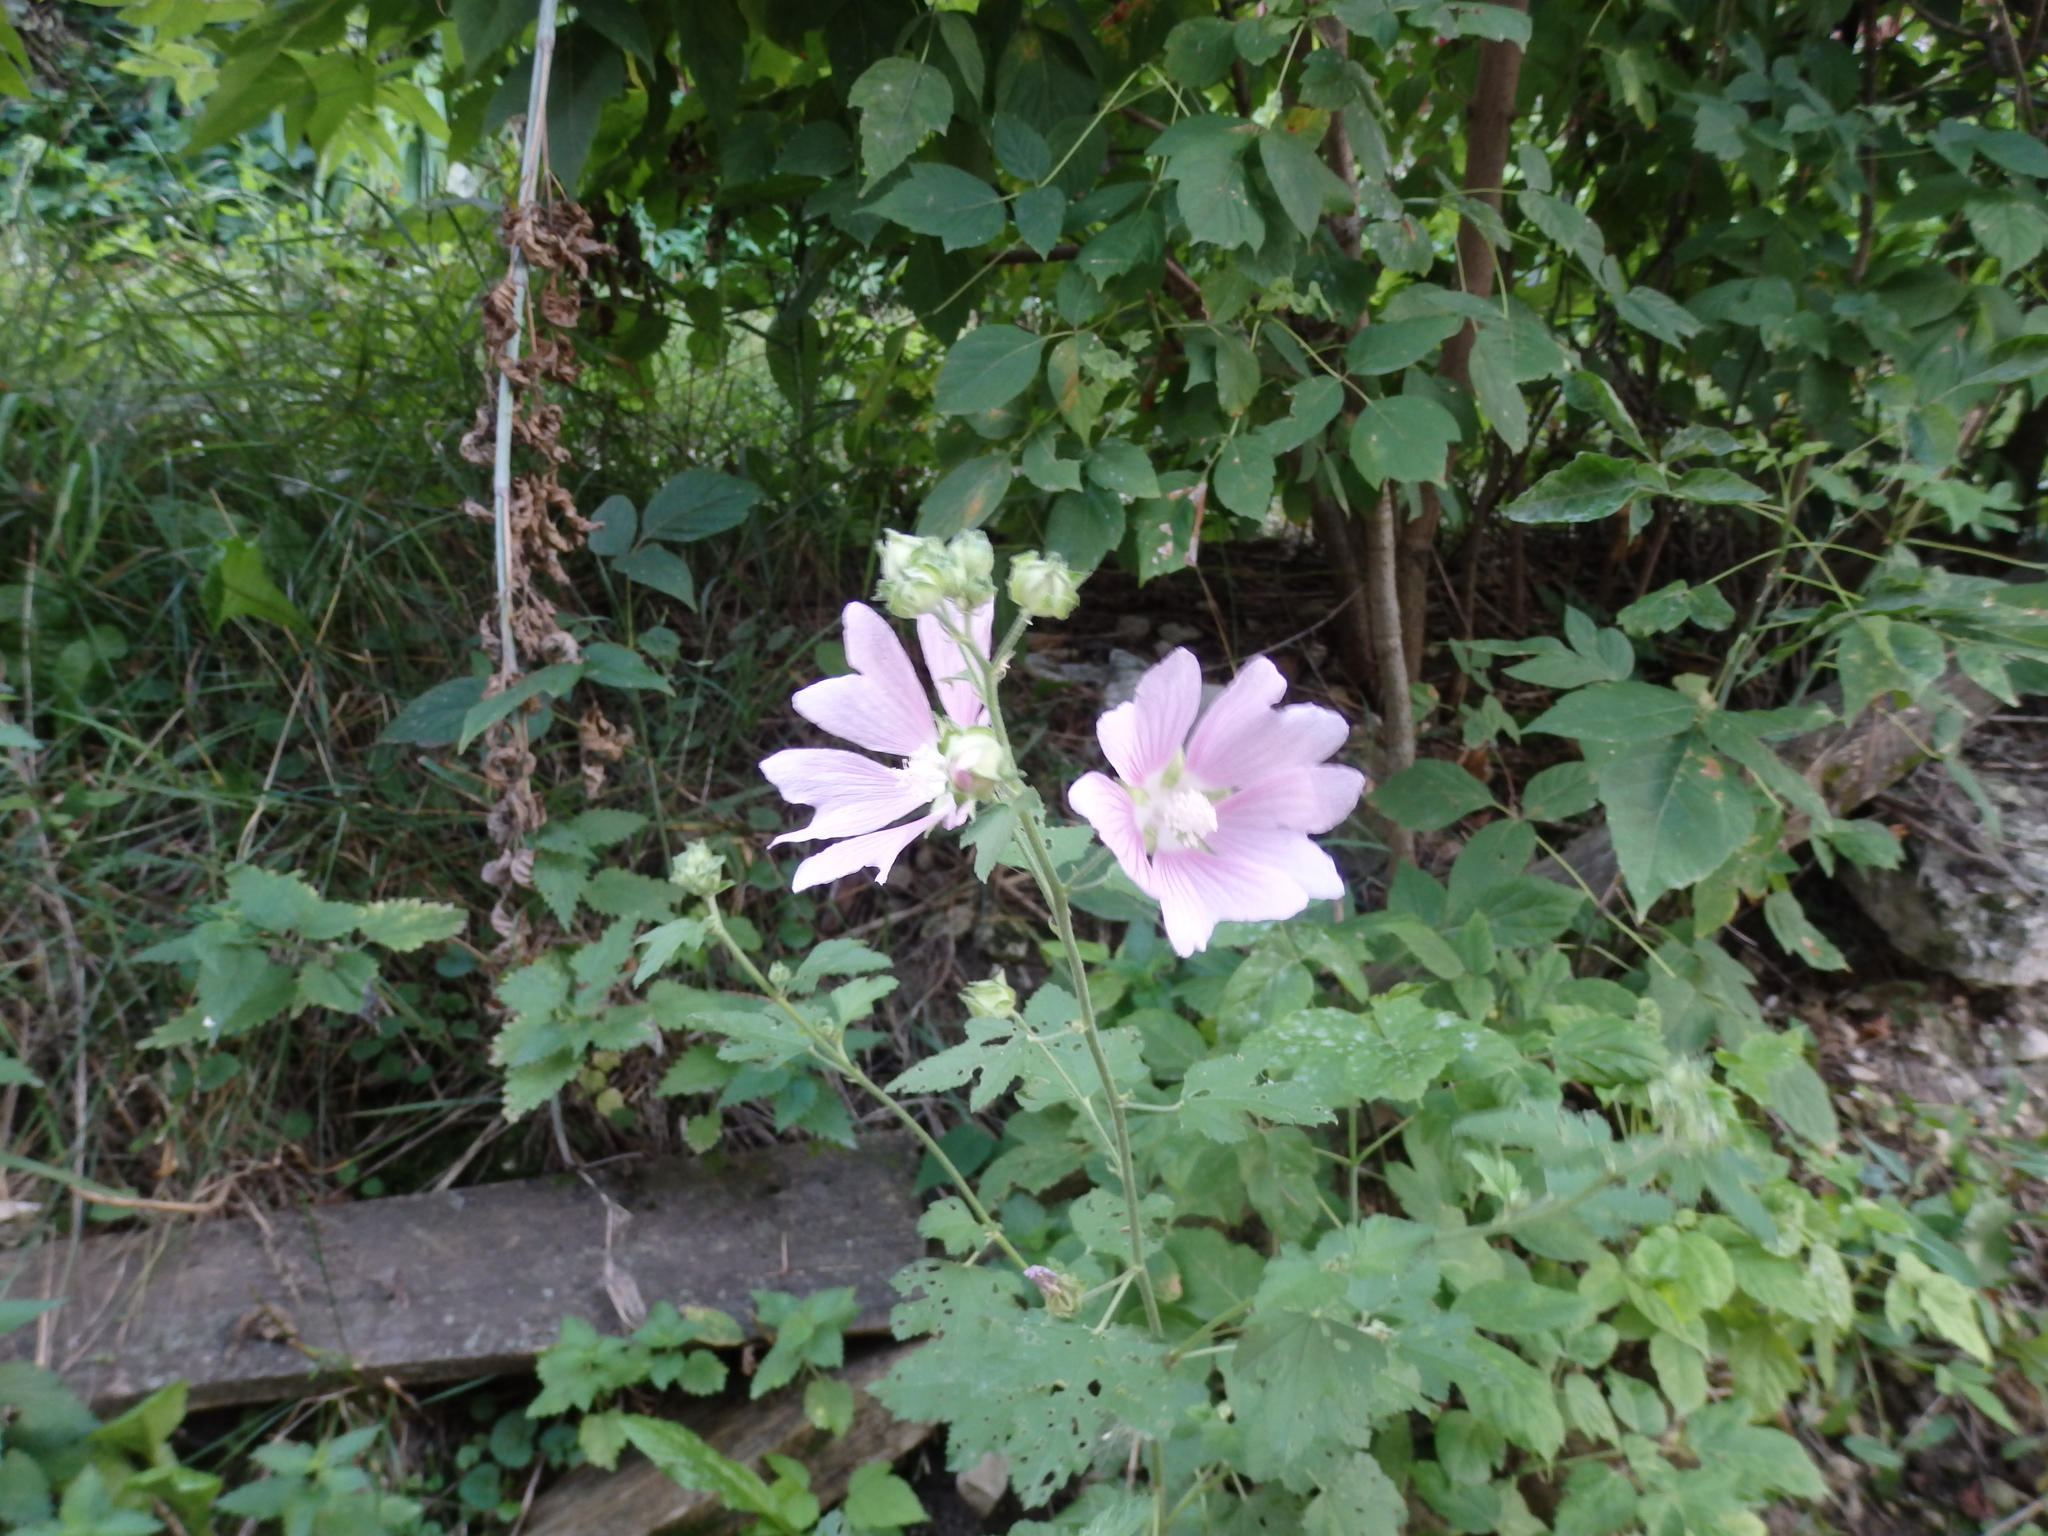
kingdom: Plantae
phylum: Tracheophyta
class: Magnoliopsida
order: Malvales
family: Malvaceae
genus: Malva
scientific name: Malva thuringiaca
